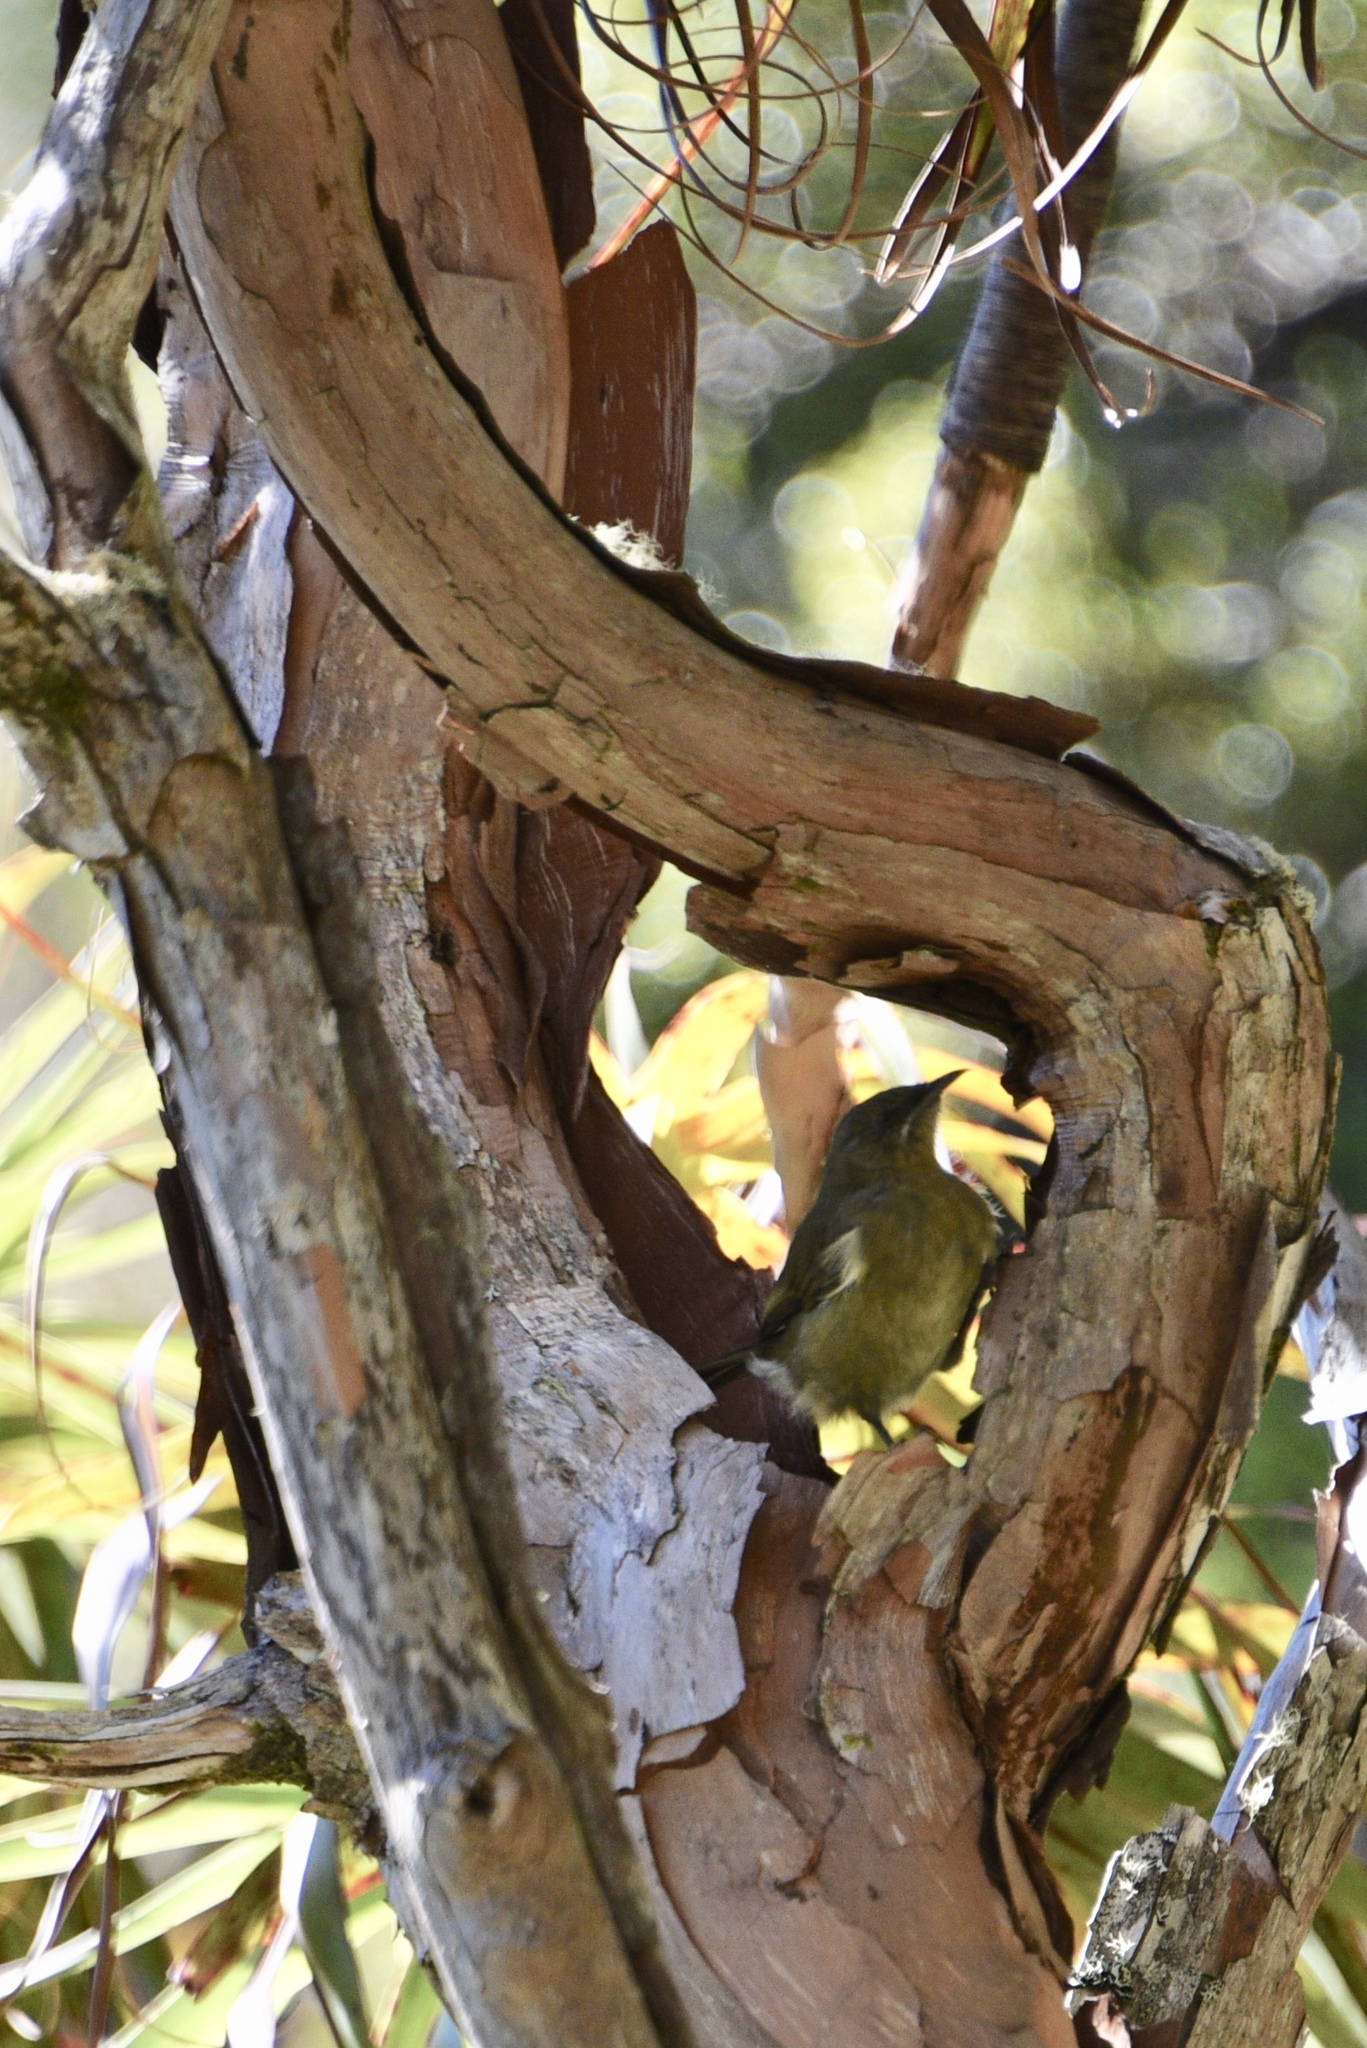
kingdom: Animalia
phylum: Chordata
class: Aves
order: Passeriformes
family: Meliphagidae
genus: Anthornis
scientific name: Anthornis melanura
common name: New zealand bellbird
